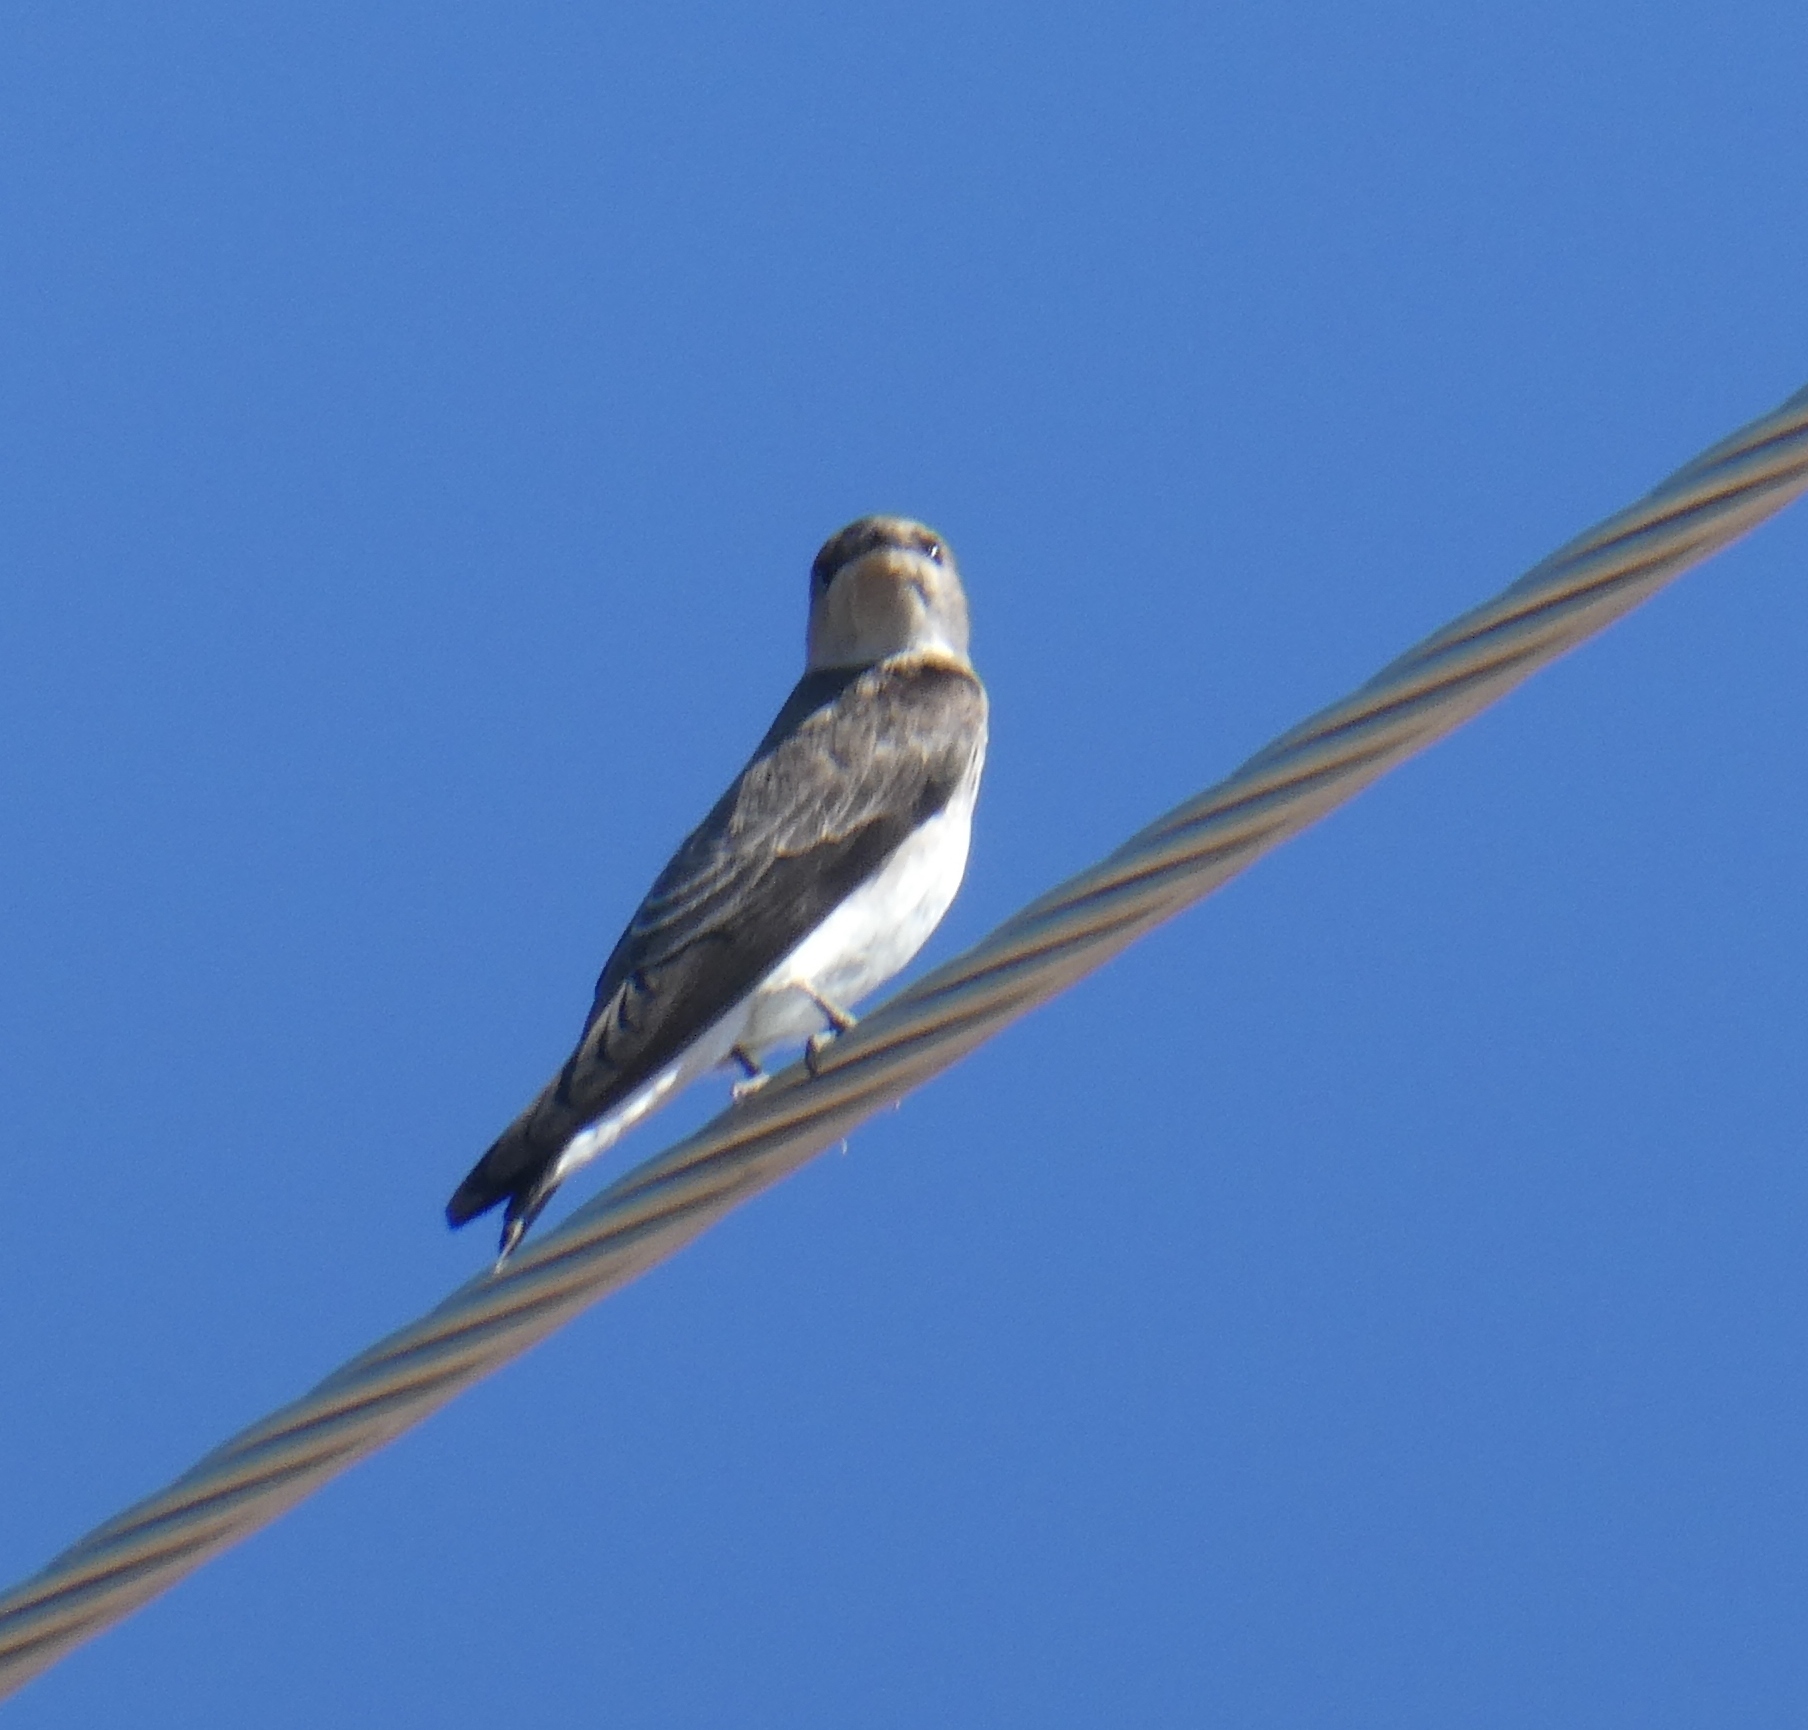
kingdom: Animalia
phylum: Chordata
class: Aves
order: Passeriformes
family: Hirundinidae
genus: Stelgidopteryx
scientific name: Stelgidopteryx serripennis
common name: Northern rough-winged swallow
